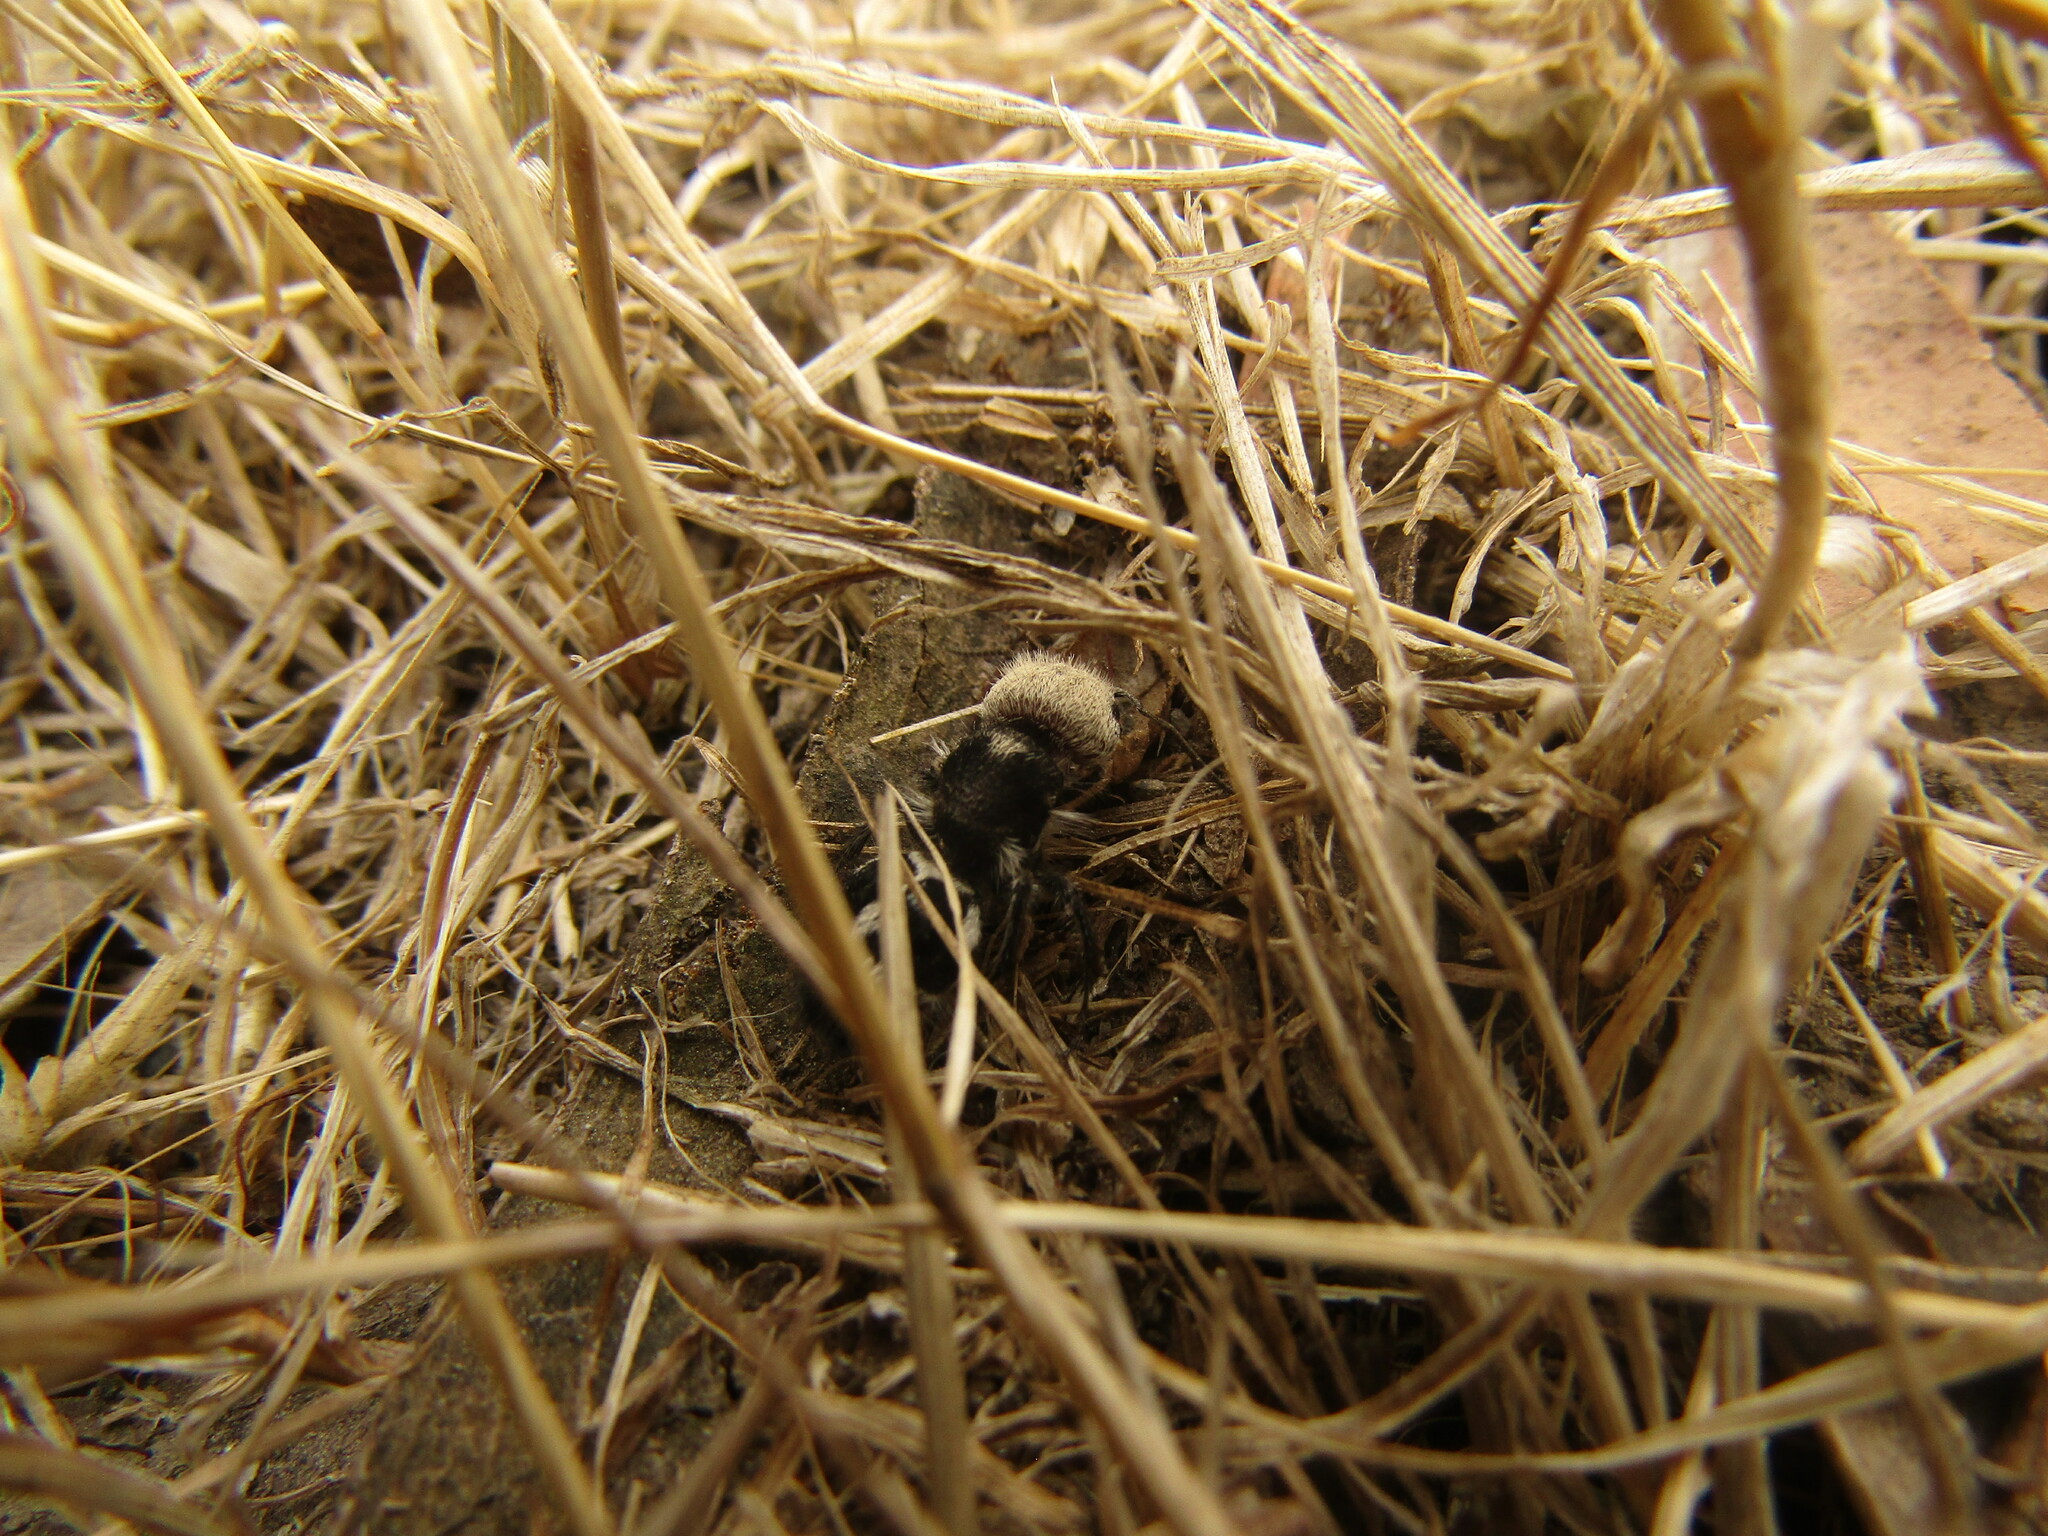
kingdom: Animalia
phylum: Arthropoda
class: Insecta
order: Hymenoptera
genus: Euspinolia
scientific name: Euspinolia
